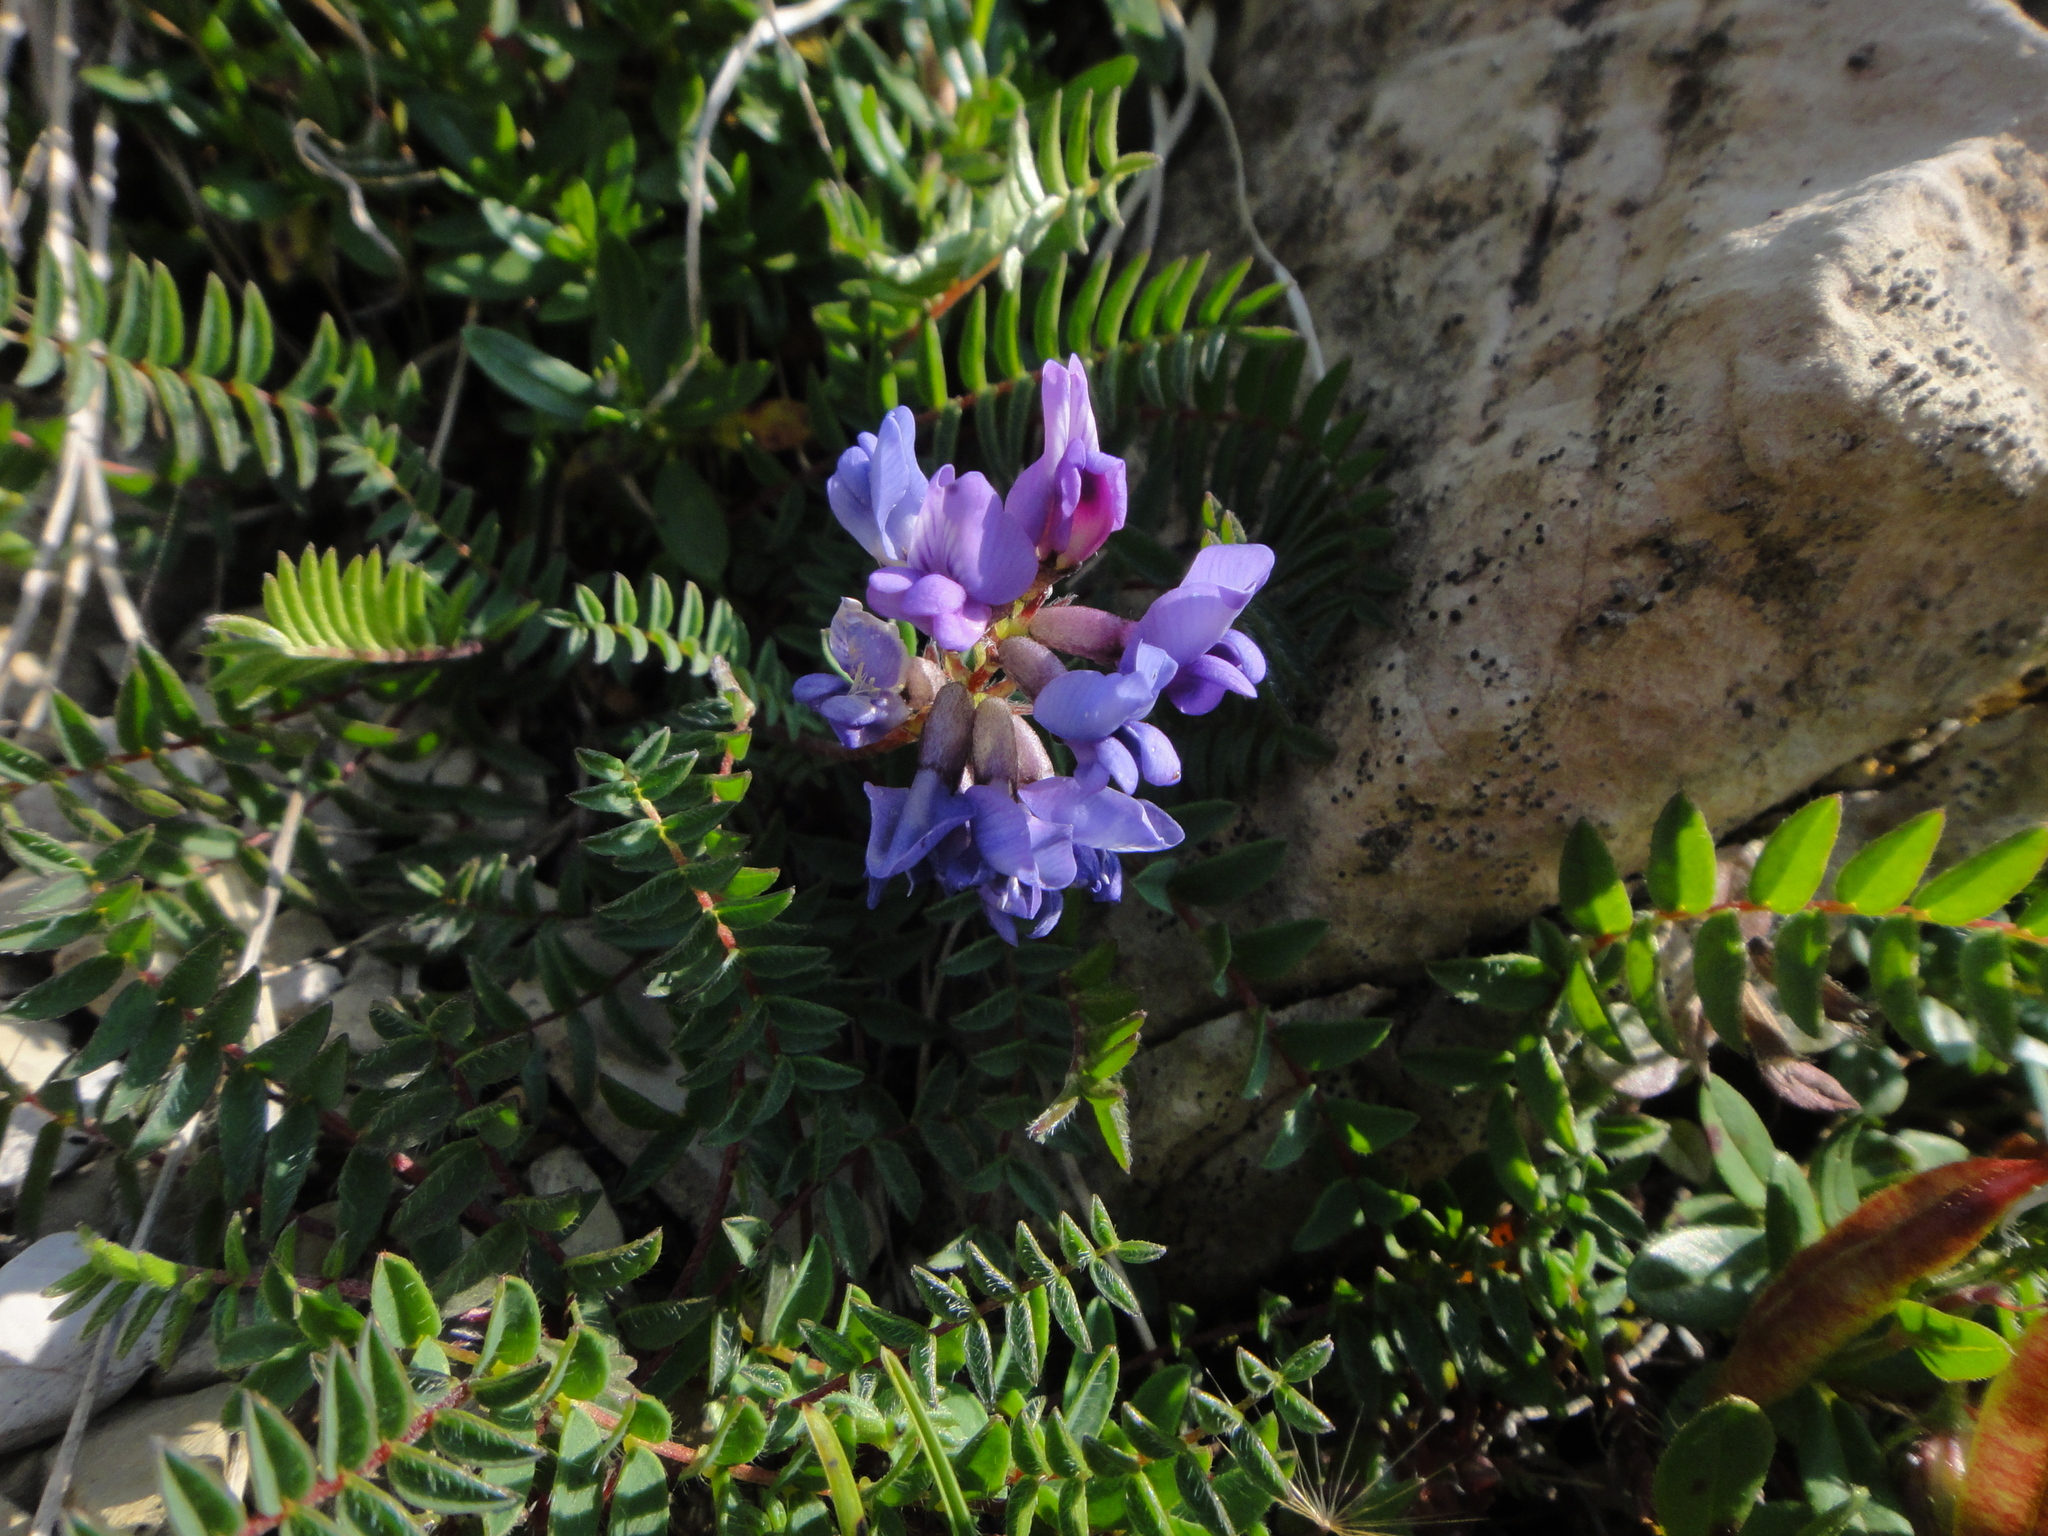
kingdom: Plantae
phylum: Tracheophyta
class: Magnoliopsida
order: Fabales
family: Fabaceae
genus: Oxytropis
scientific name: Oxytropis montana
